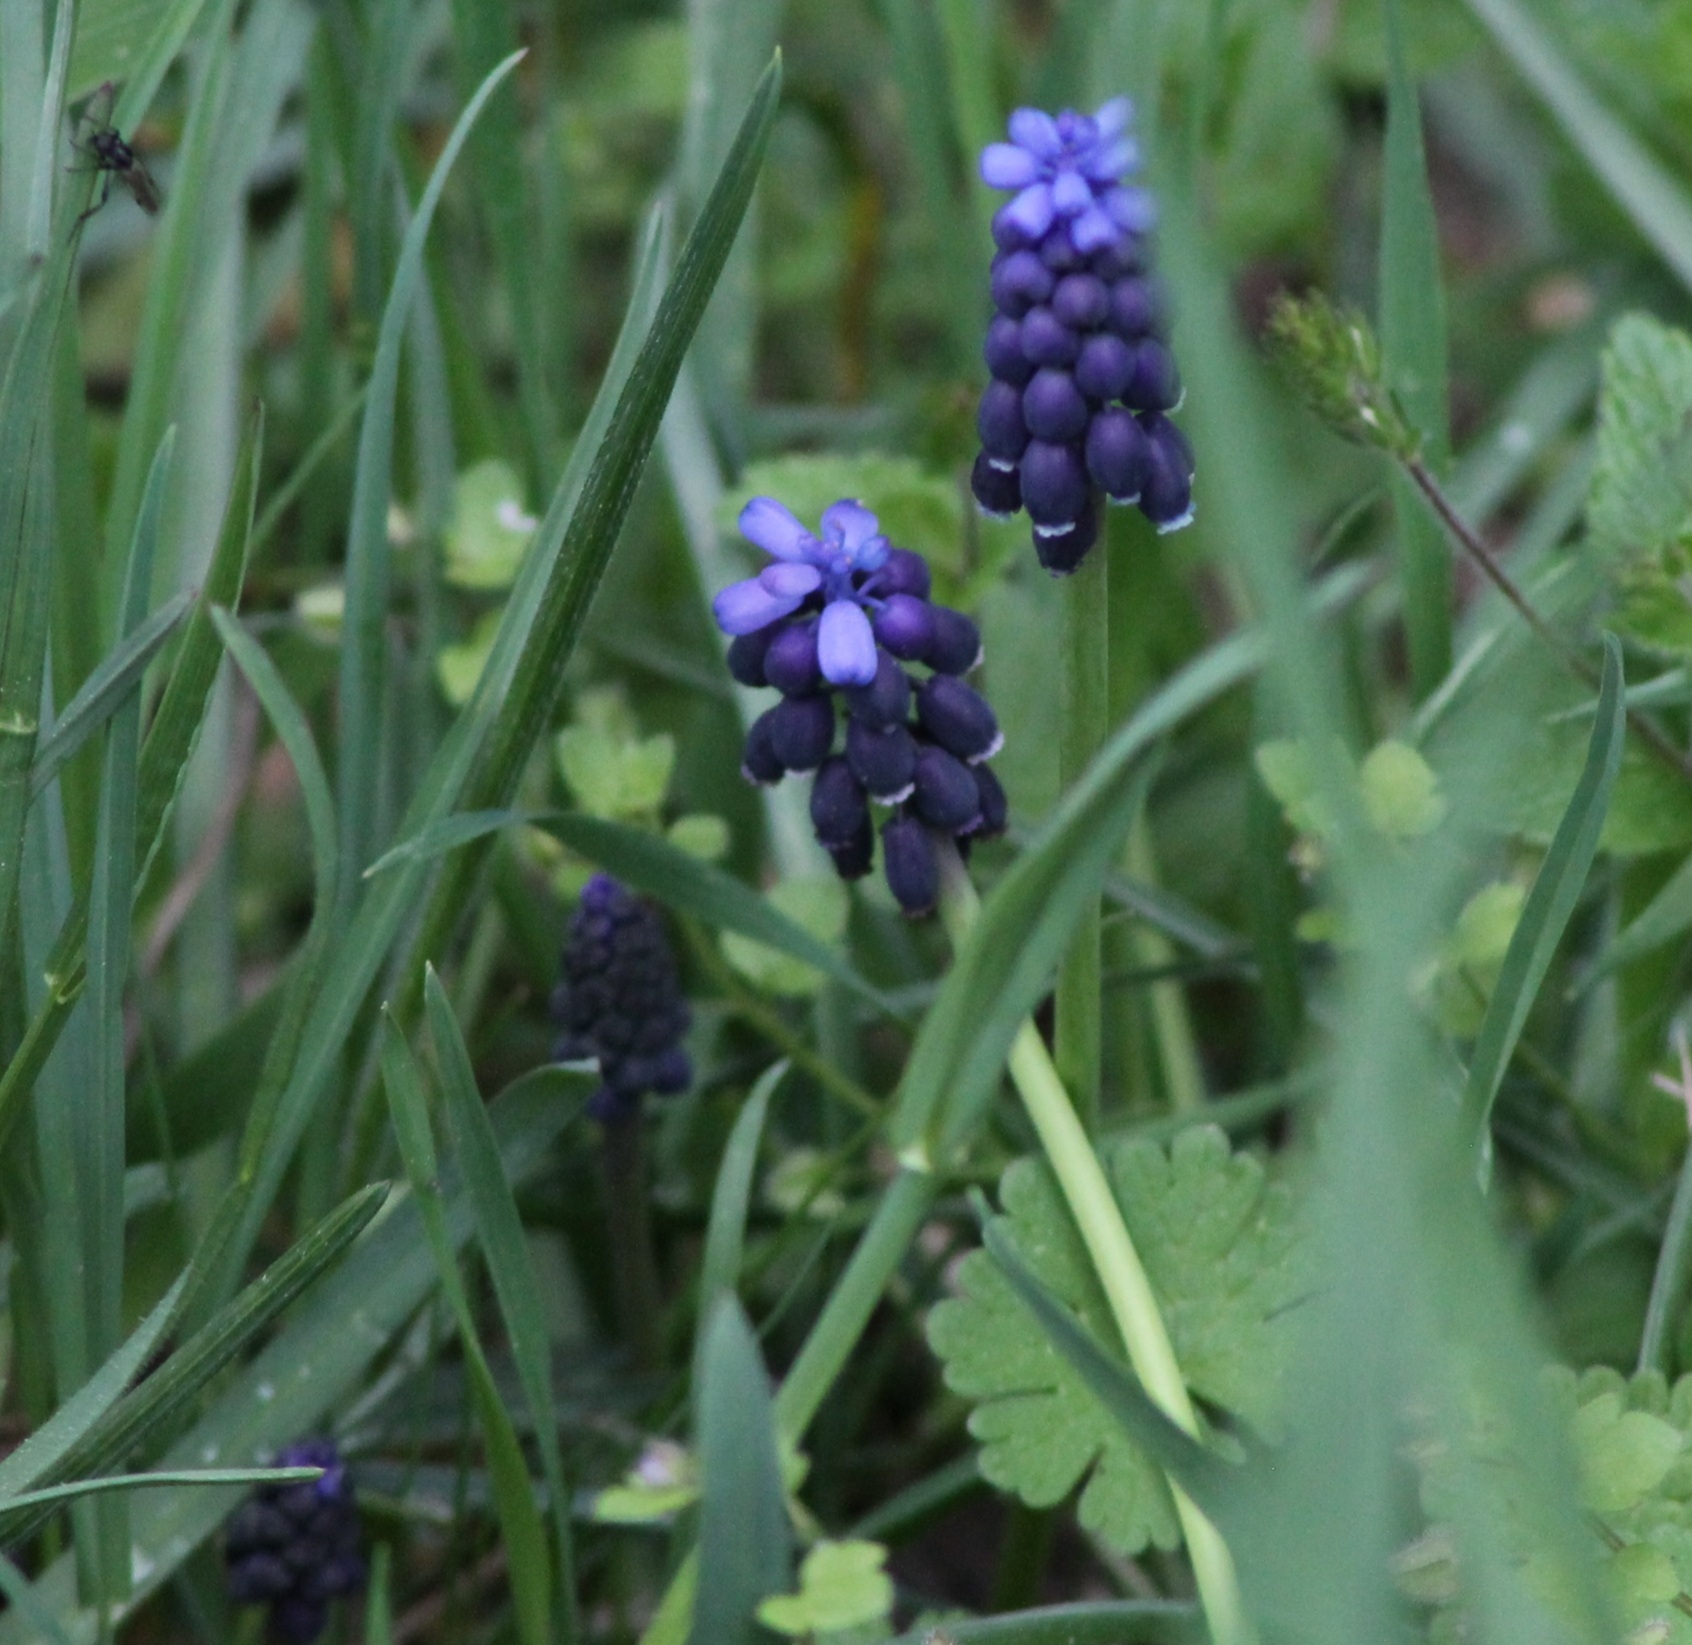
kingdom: Plantae
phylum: Tracheophyta
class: Liliopsida
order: Asparagales
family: Asparagaceae
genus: Muscari
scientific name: Muscari neglectum
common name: Grape-hyacinth
